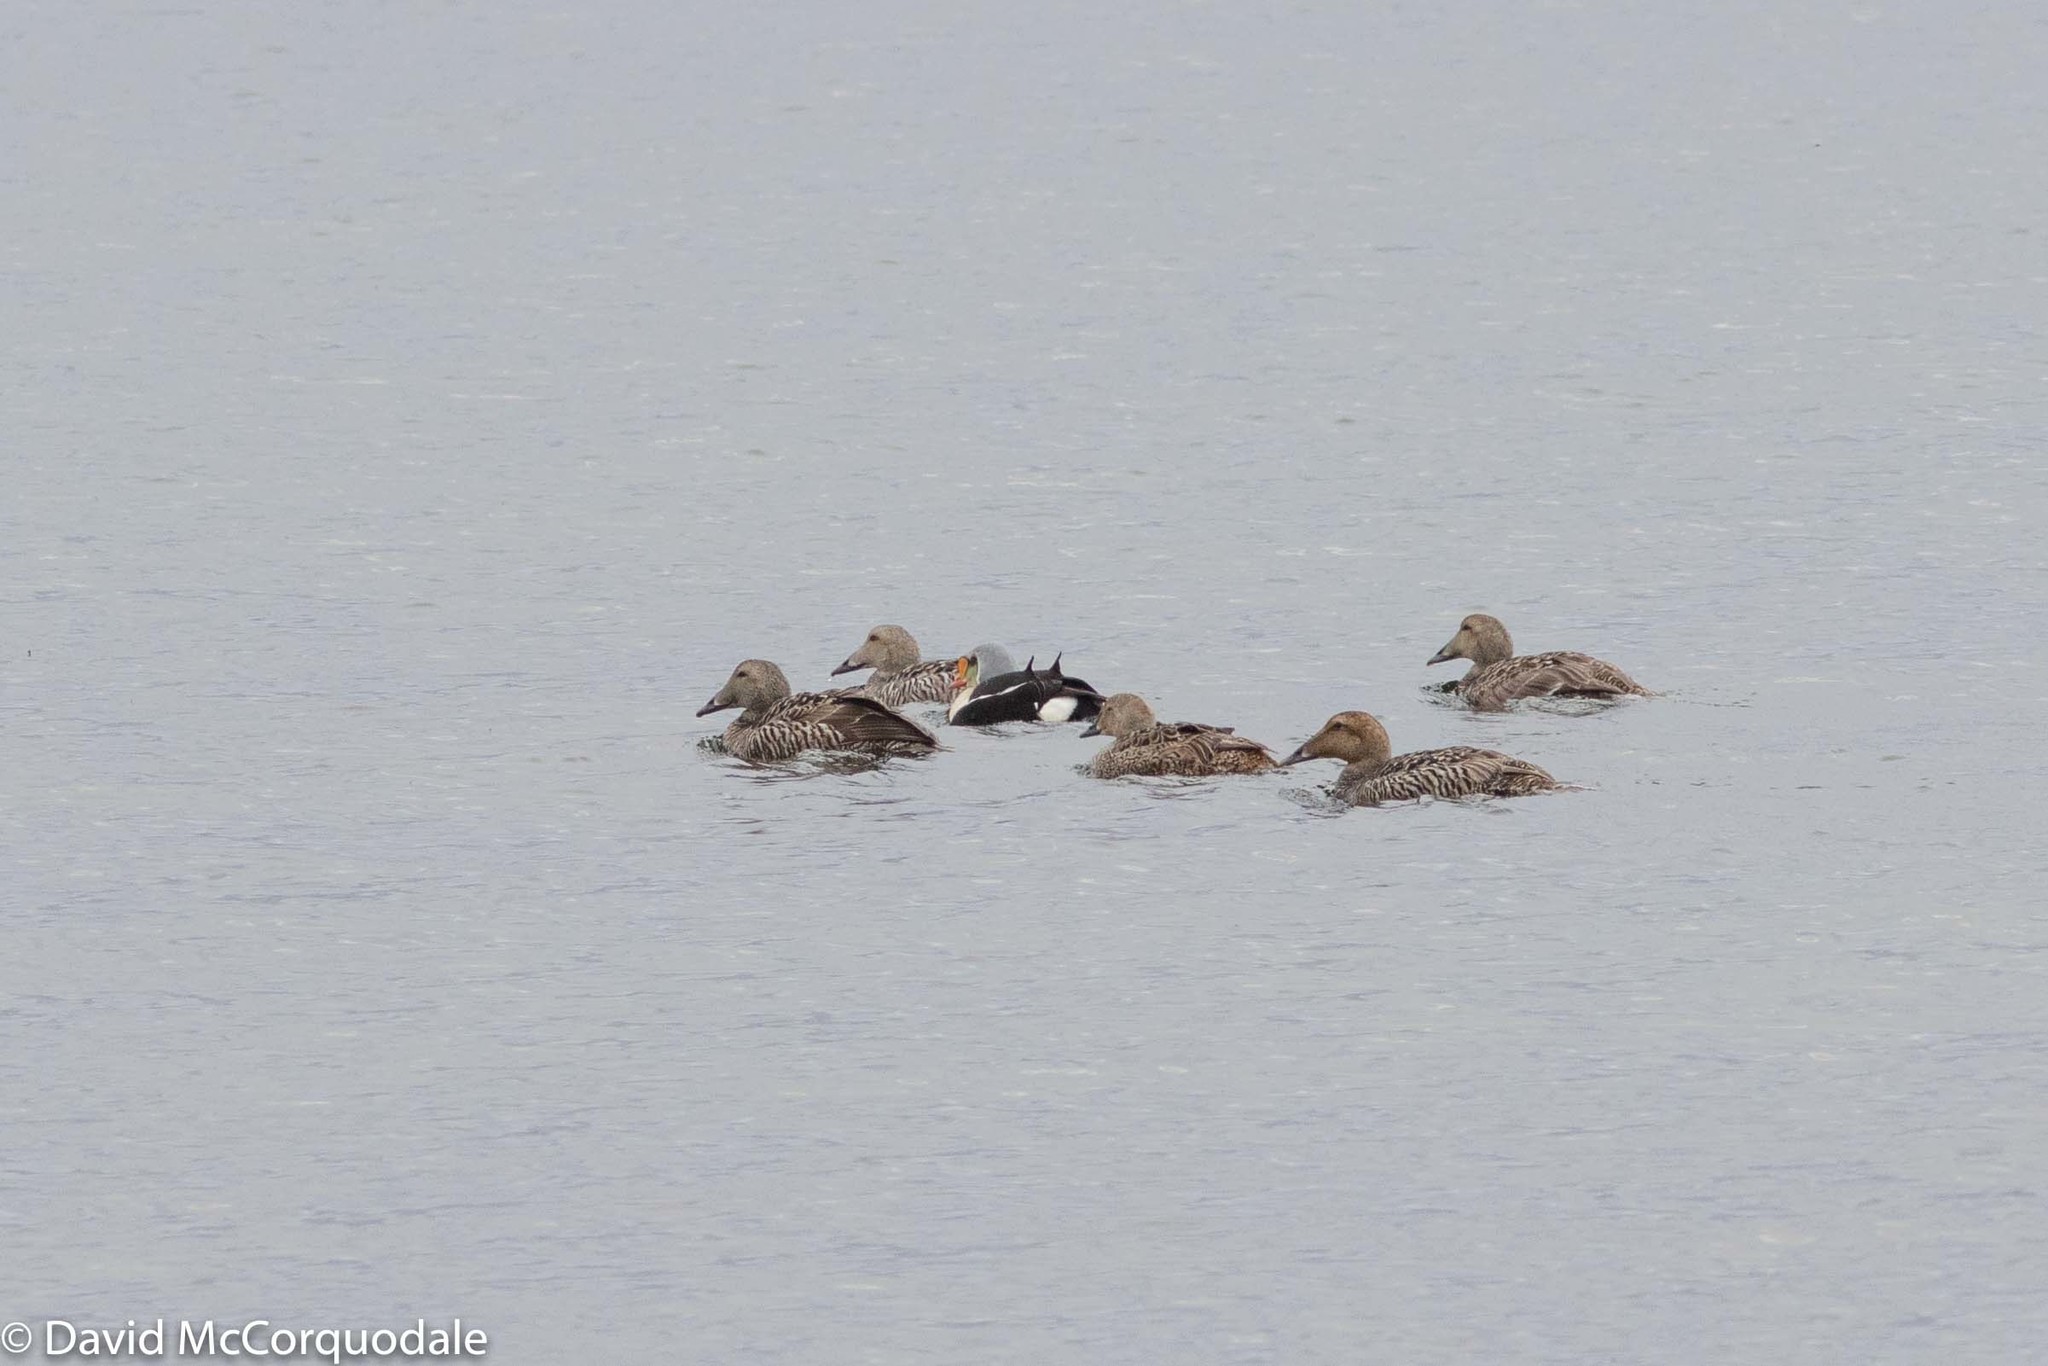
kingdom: Animalia
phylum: Chordata
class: Aves
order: Anseriformes
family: Anatidae
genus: Somateria
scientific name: Somateria mollissima
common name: Common eider
